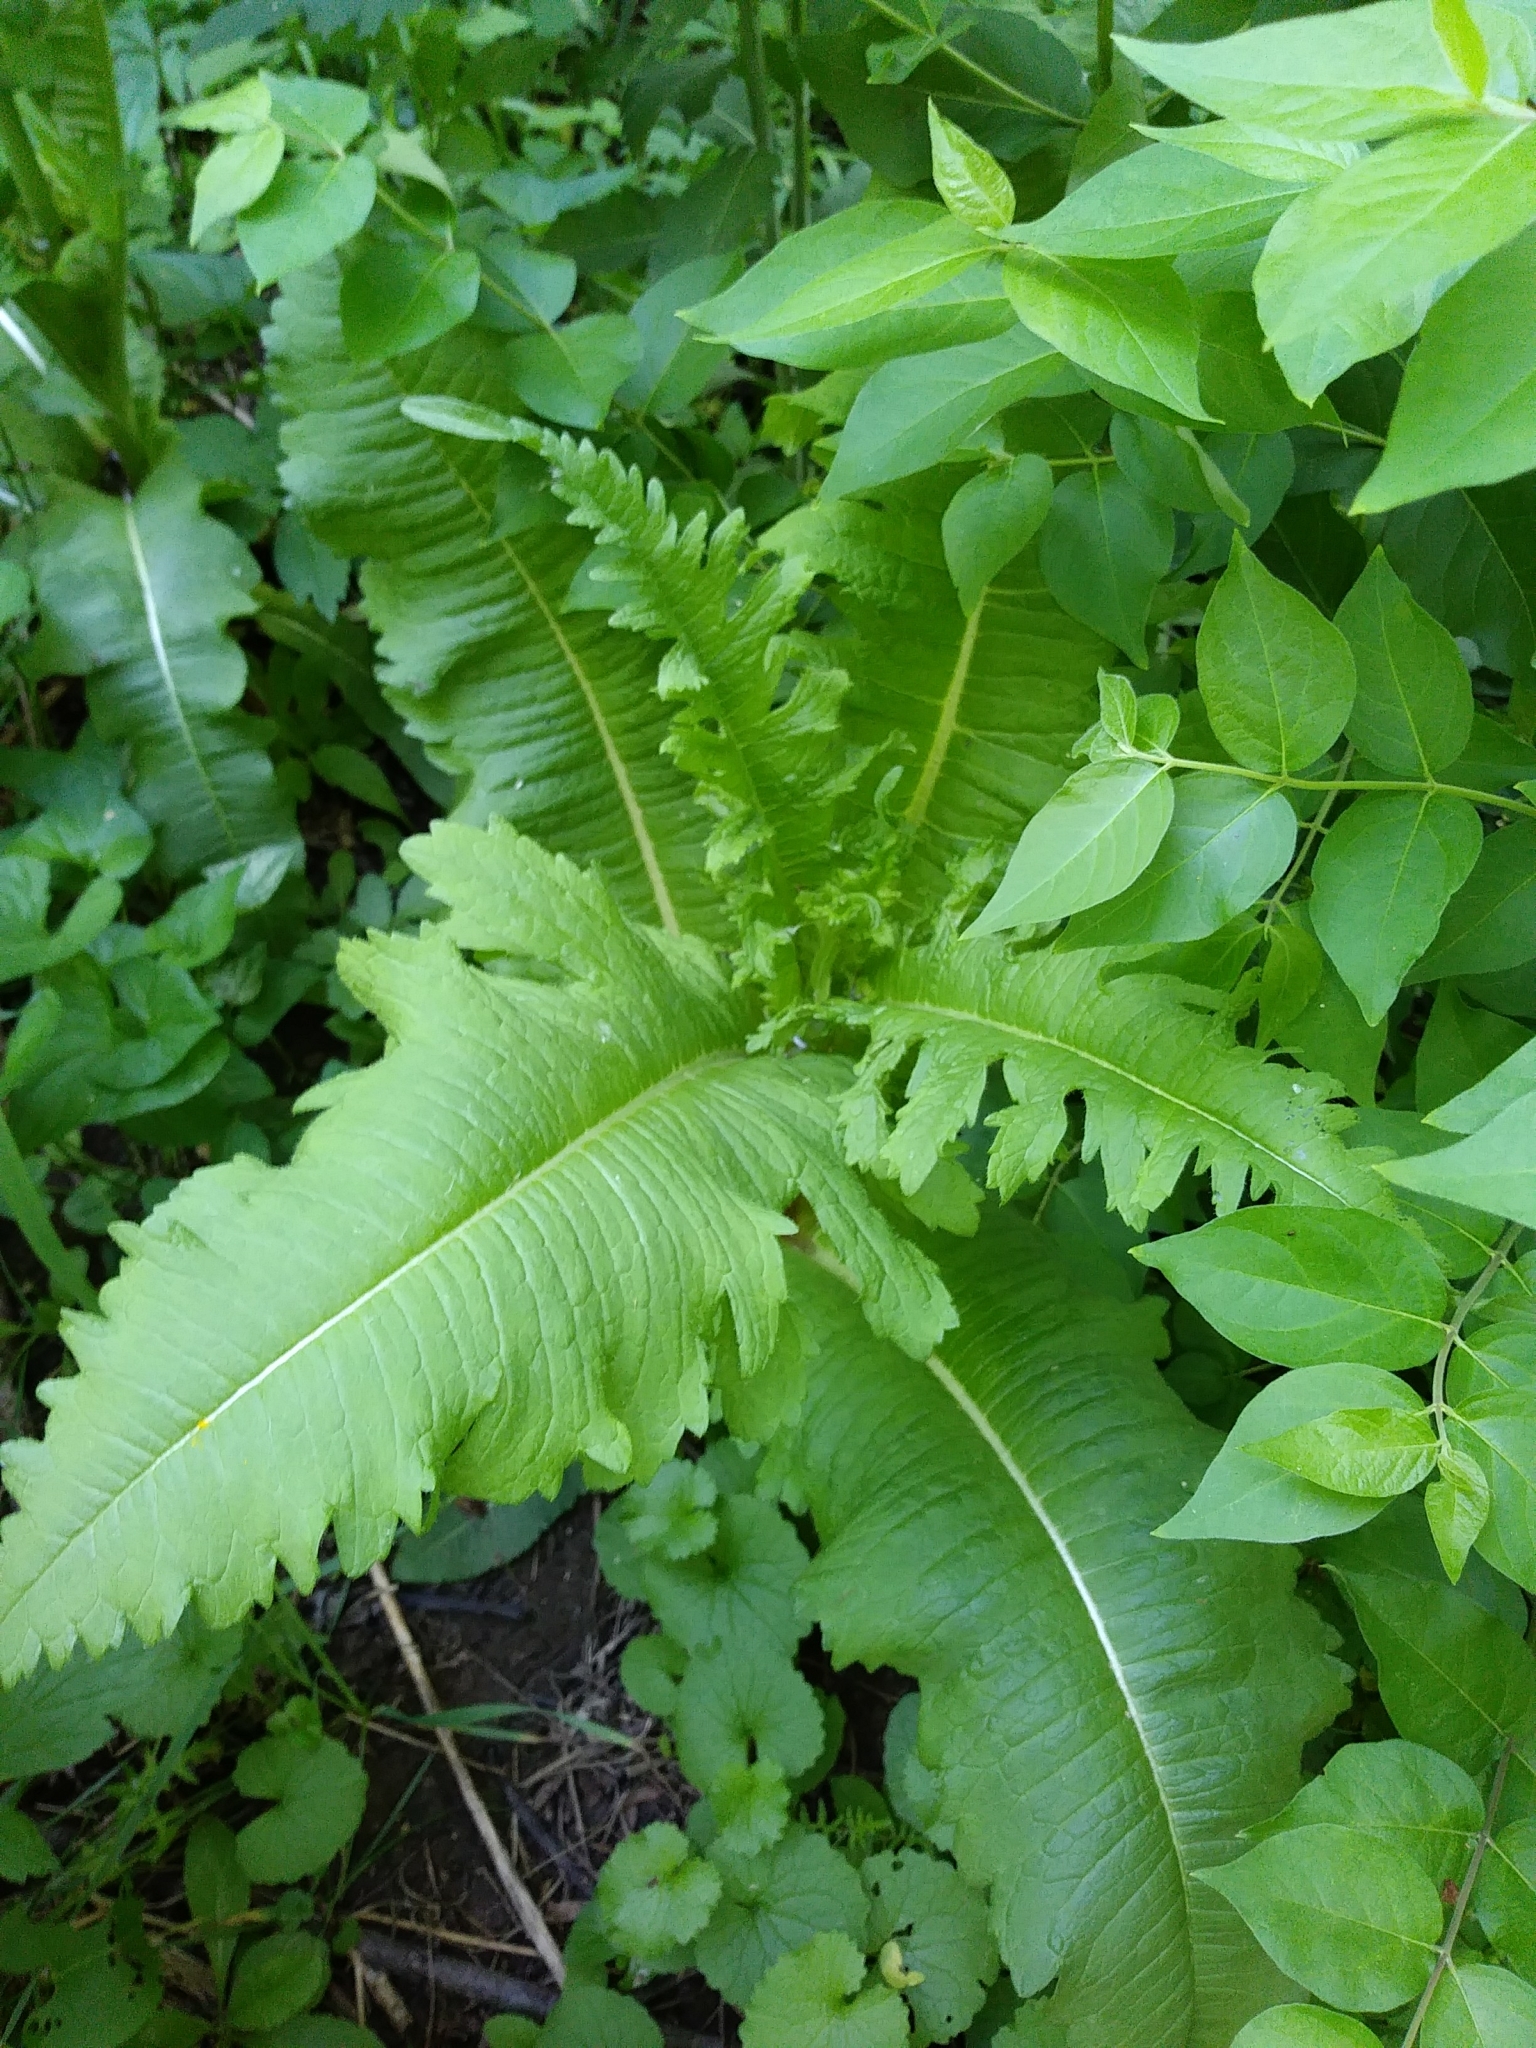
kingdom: Plantae
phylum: Tracheophyta
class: Magnoliopsida
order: Dipsacales
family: Caprifoliaceae
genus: Dipsacus
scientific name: Dipsacus laciniatus
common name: Cut-leaved teasel
